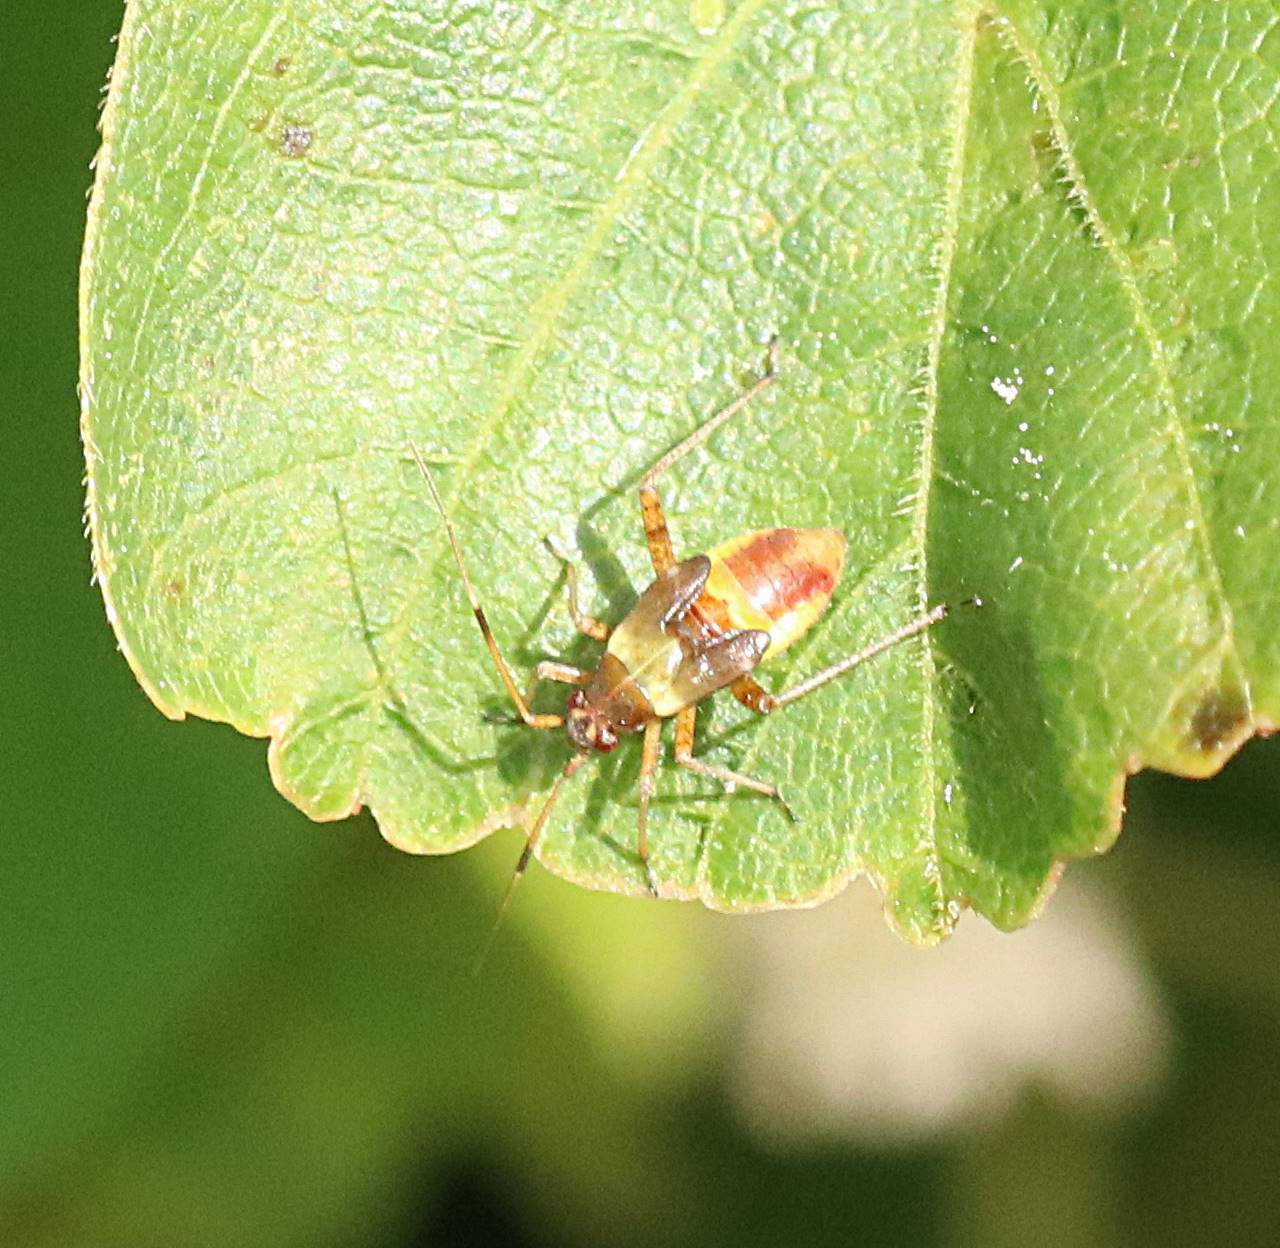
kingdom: Animalia
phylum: Arthropoda
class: Insecta
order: Hemiptera
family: Miridae
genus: Closterotomus
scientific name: Closterotomus fulvomaculatus
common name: Spotted plant bug
